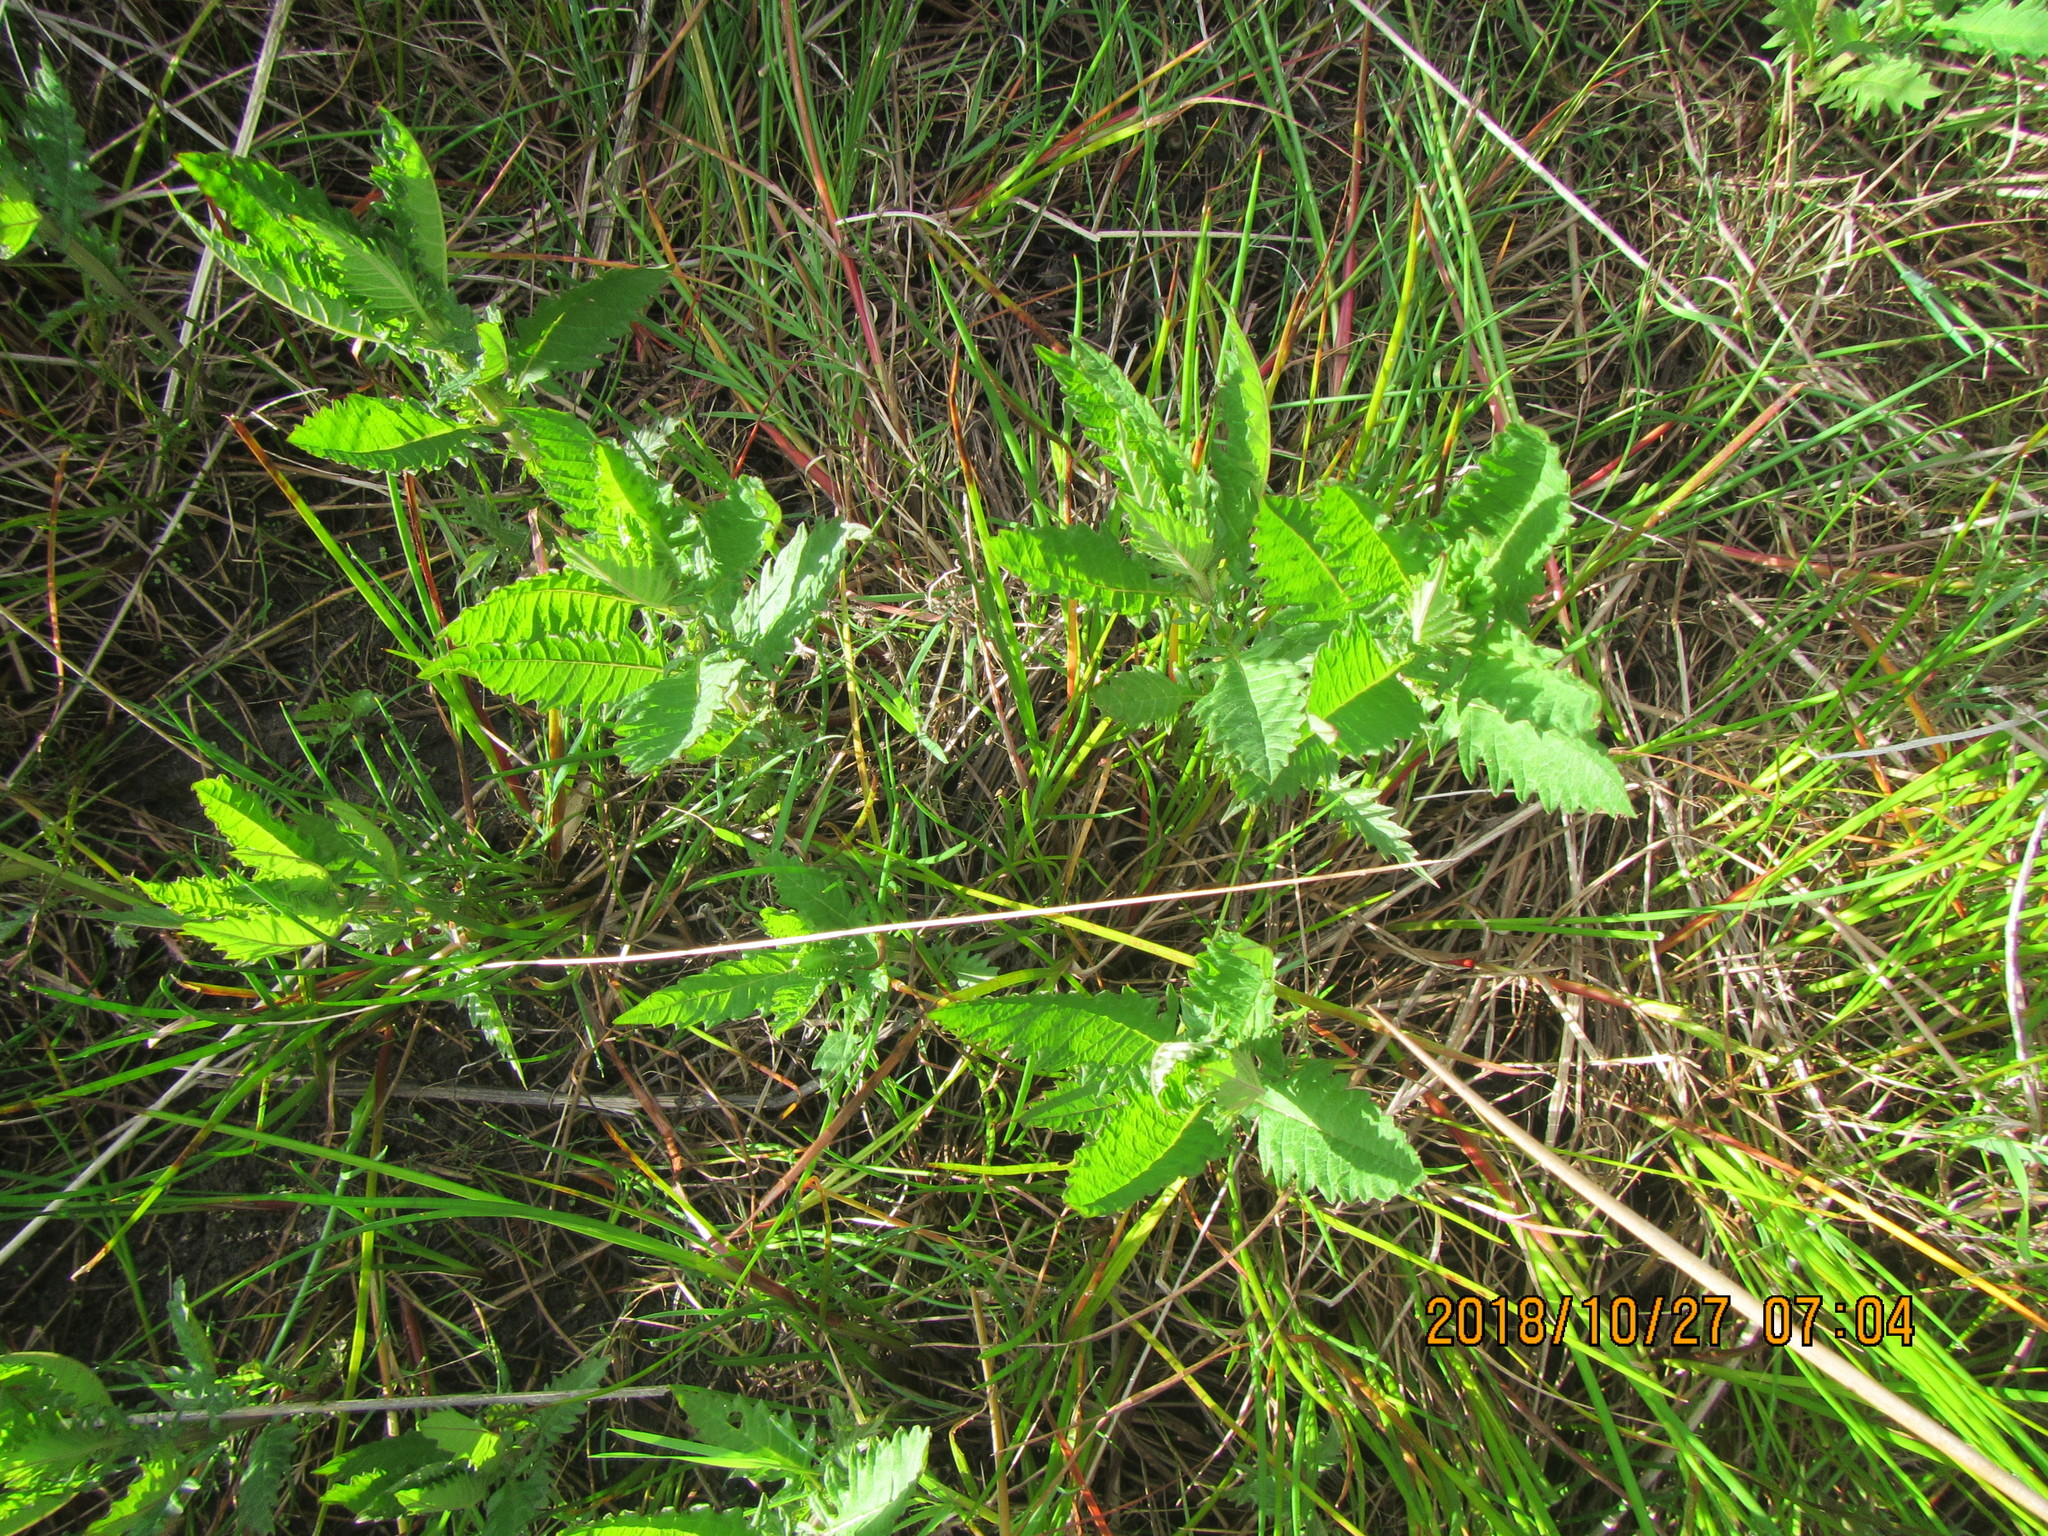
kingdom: Plantae
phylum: Tracheophyta
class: Magnoliopsida
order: Lamiales
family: Lamiaceae
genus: Lycopus
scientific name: Lycopus europaeus
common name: European bugleweed
